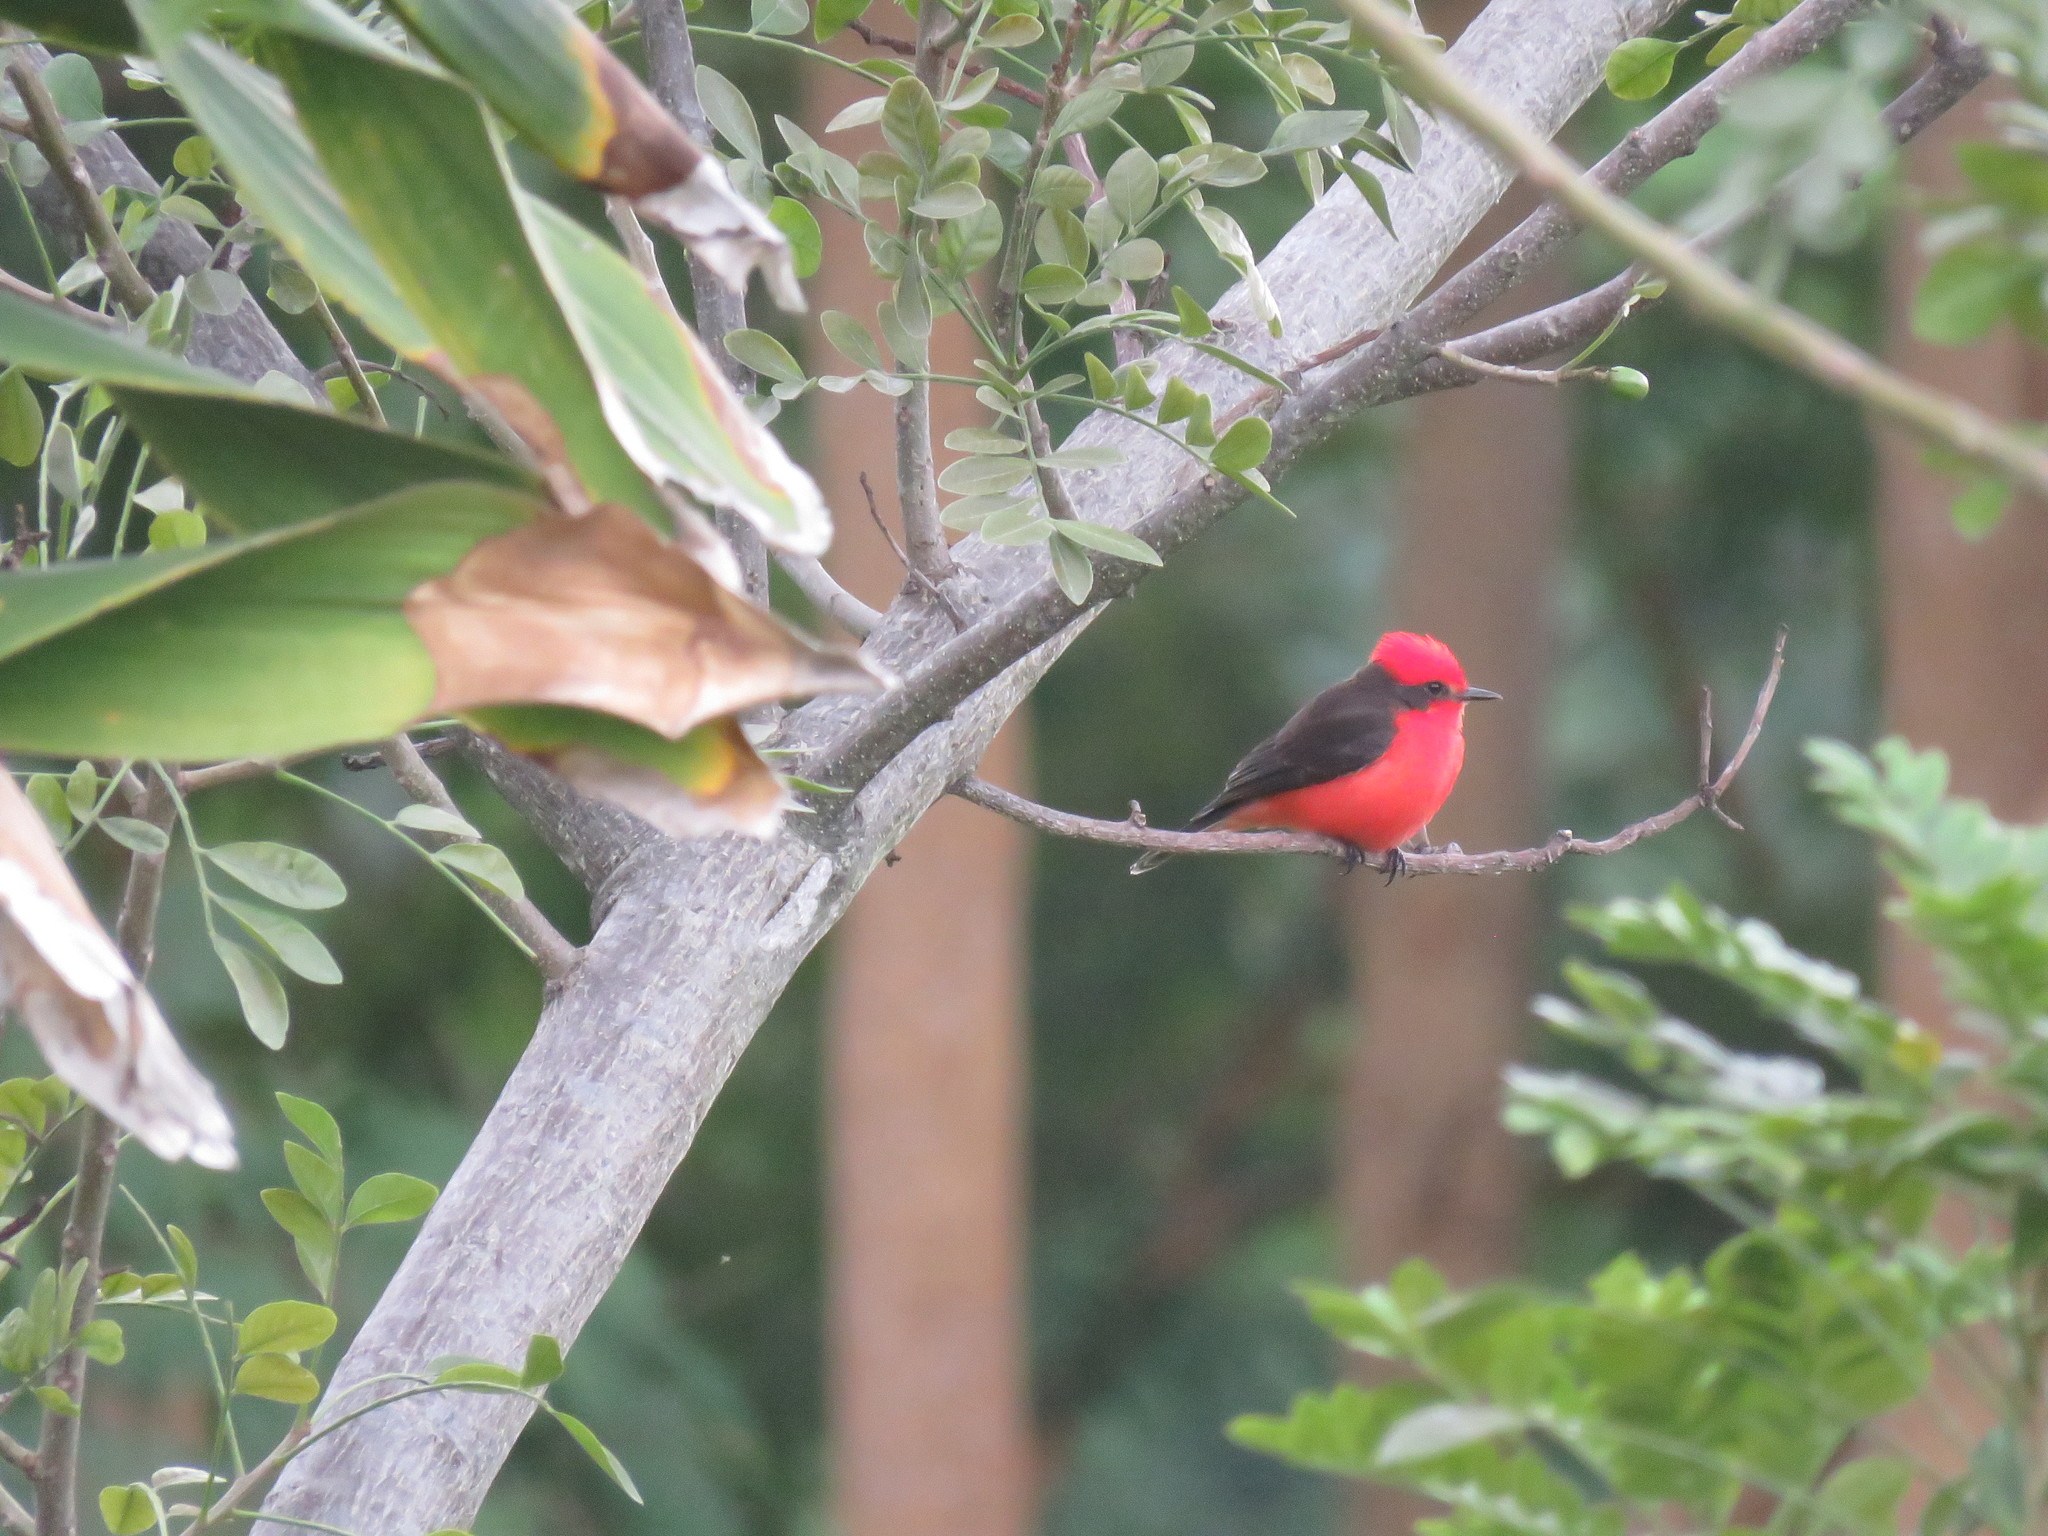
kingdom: Animalia
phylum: Chordata
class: Aves
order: Passeriformes
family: Tyrannidae
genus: Pyrocephalus
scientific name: Pyrocephalus rubinus
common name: Vermilion flycatcher
